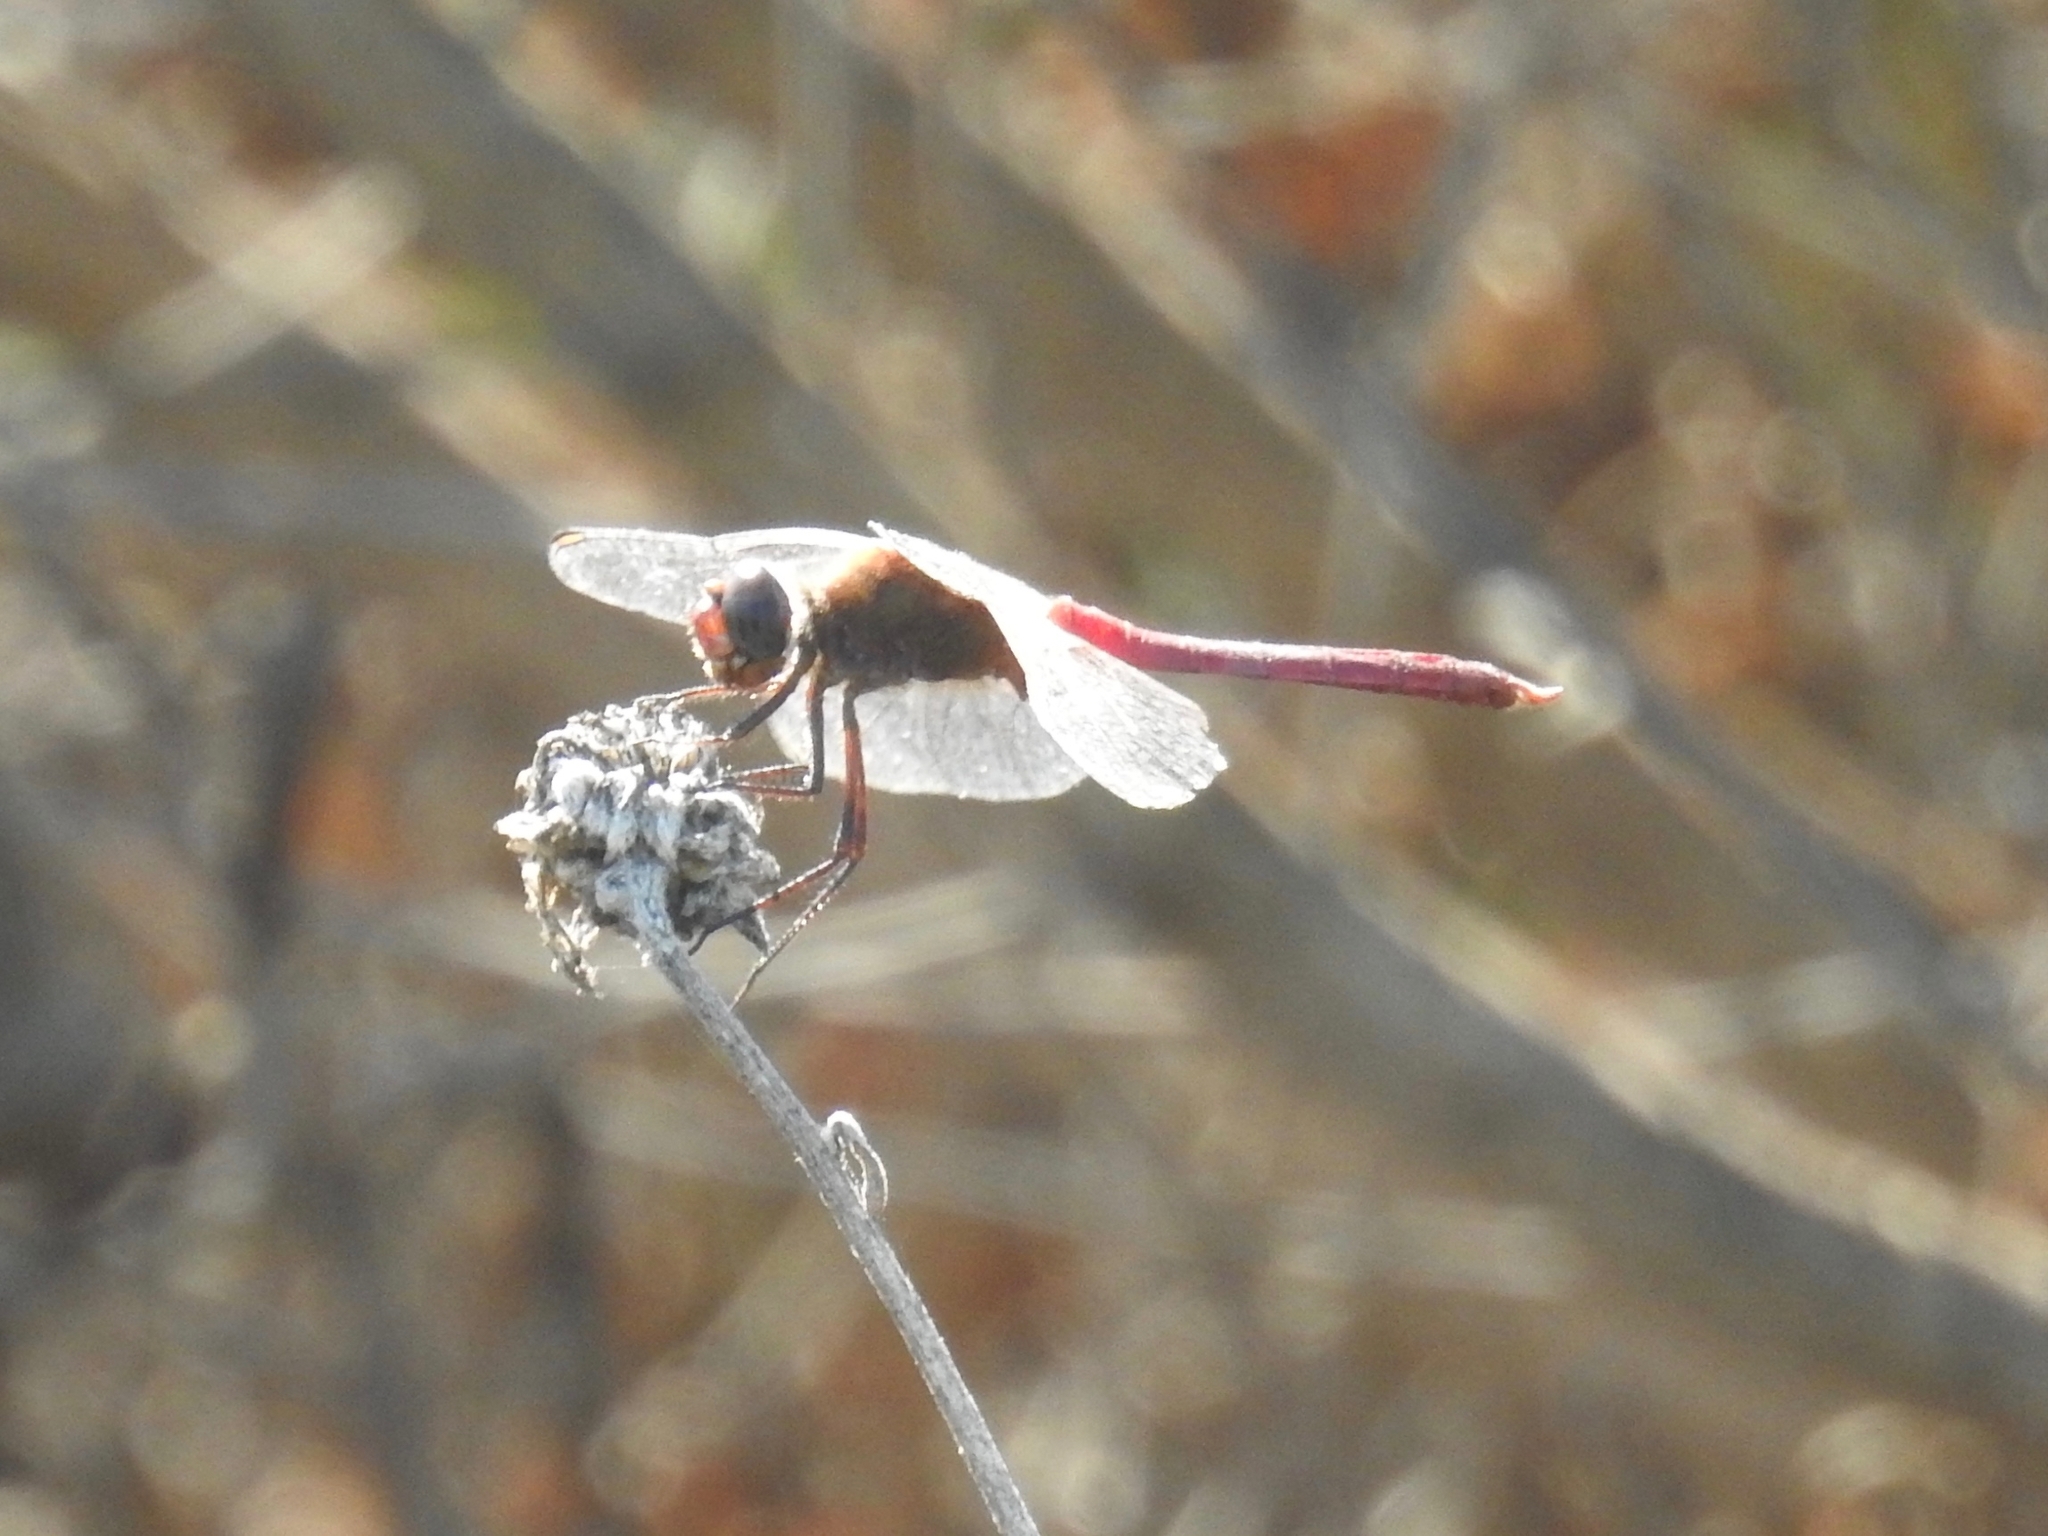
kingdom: Animalia
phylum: Arthropoda
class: Insecta
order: Odonata
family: Libellulidae
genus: Brachymesia
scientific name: Brachymesia furcata
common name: Red-taled pennant
